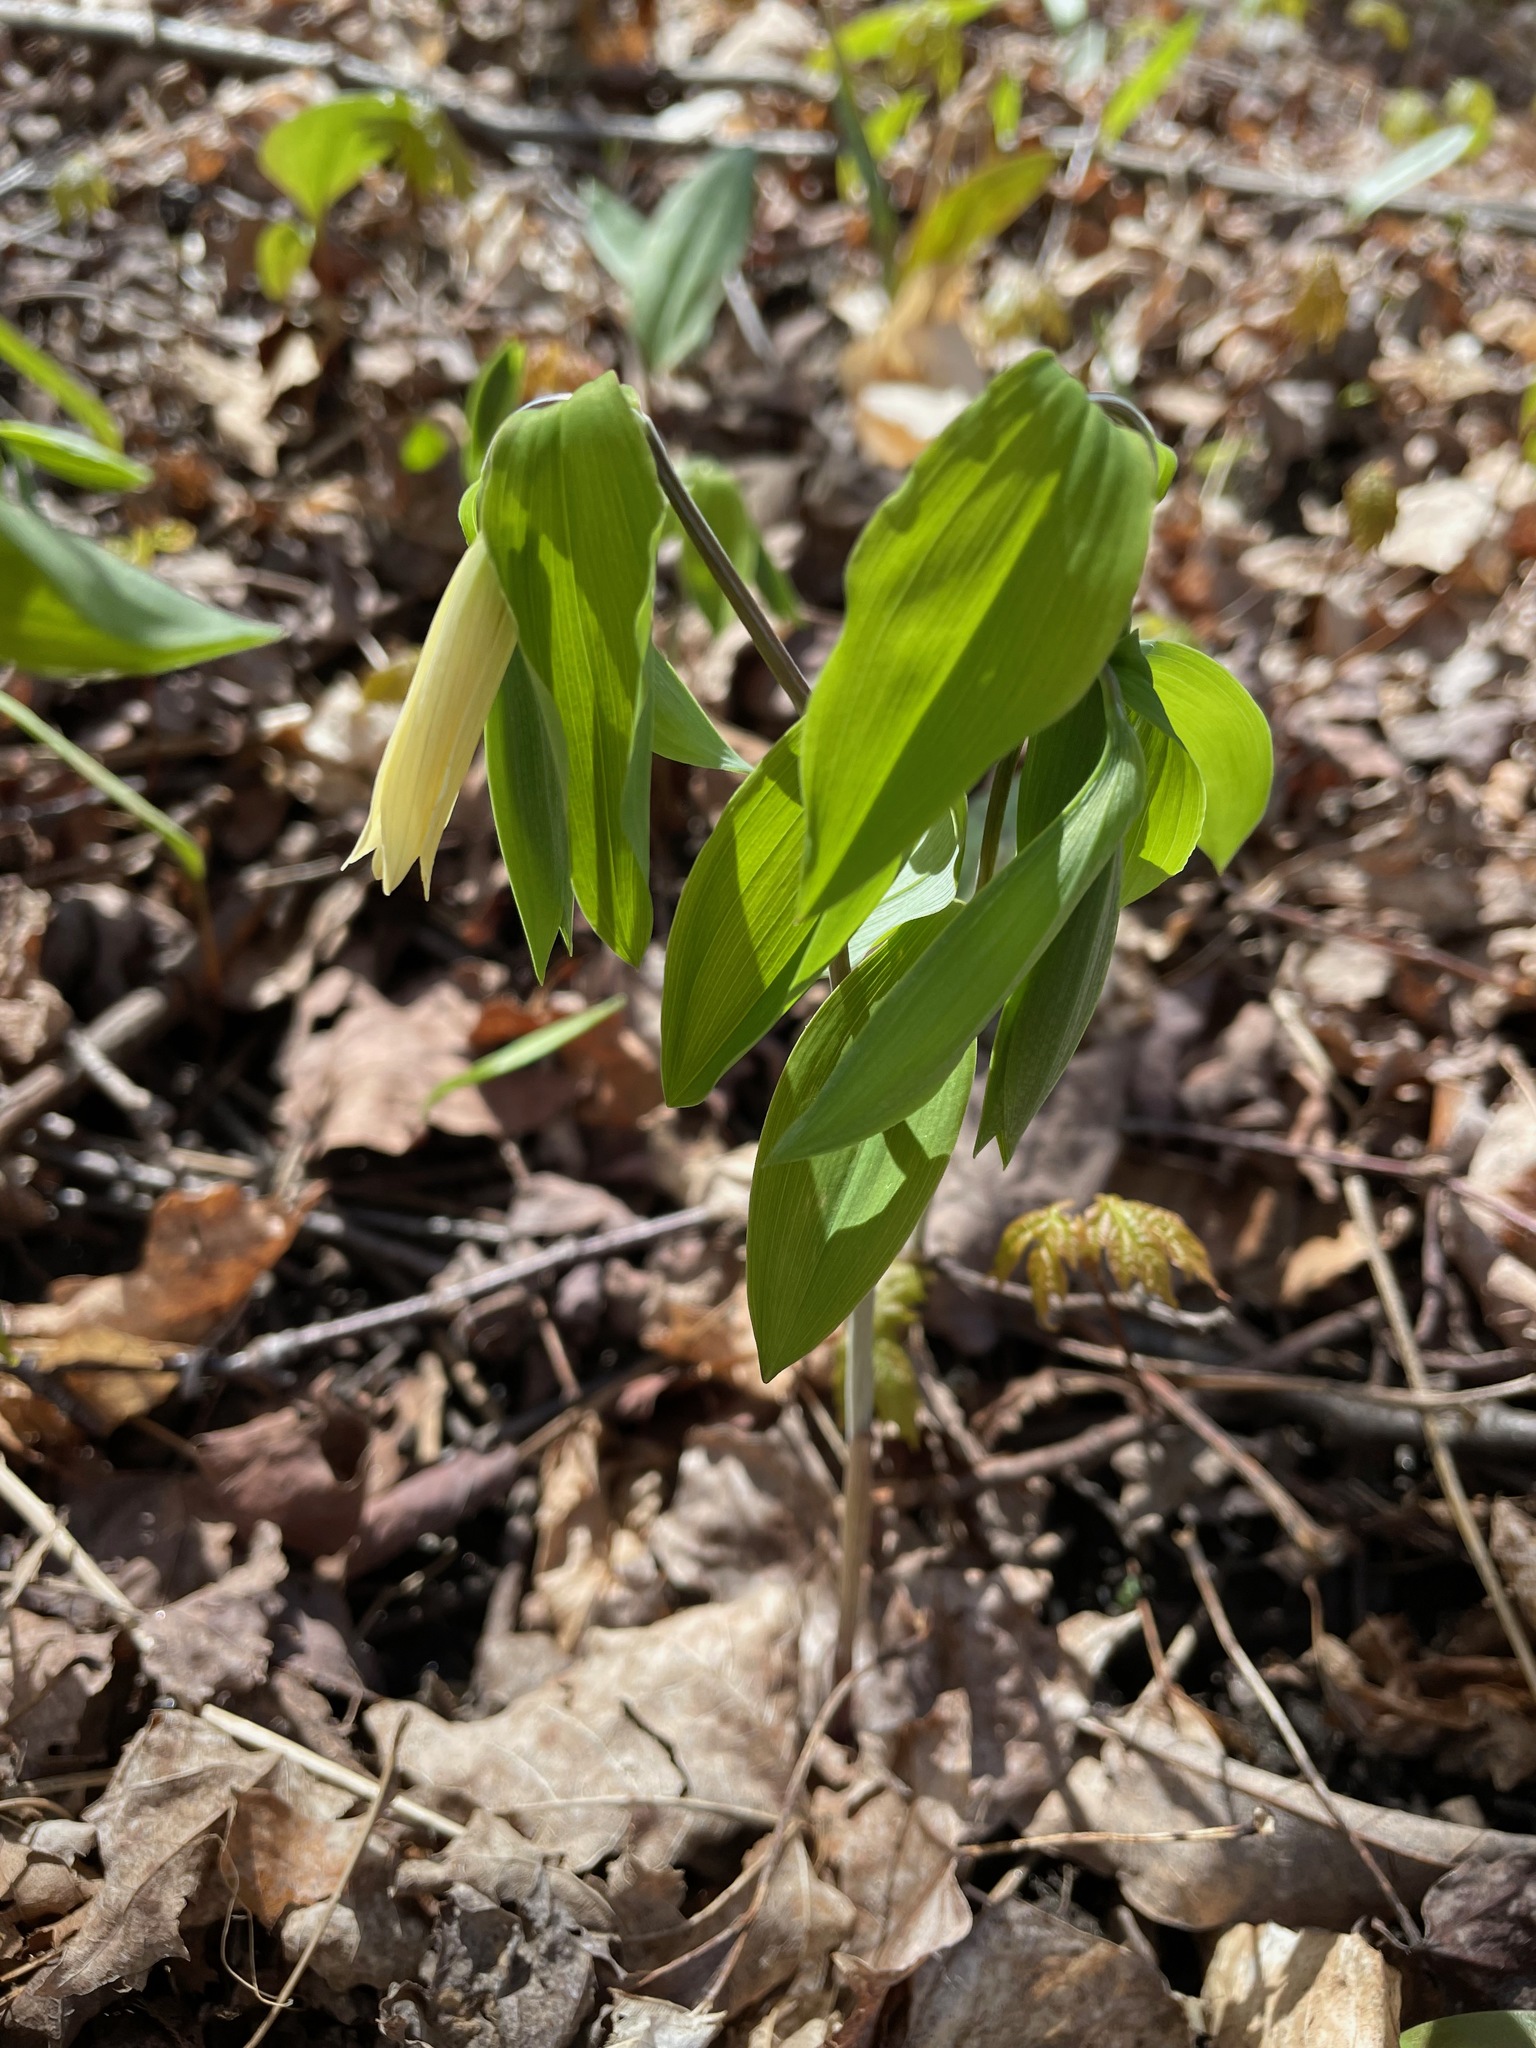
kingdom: Plantae
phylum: Tracheophyta
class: Liliopsida
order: Liliales
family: Colchicaceae
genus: Uvularia
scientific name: Uvularia sessilifolia
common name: Straw-lily
